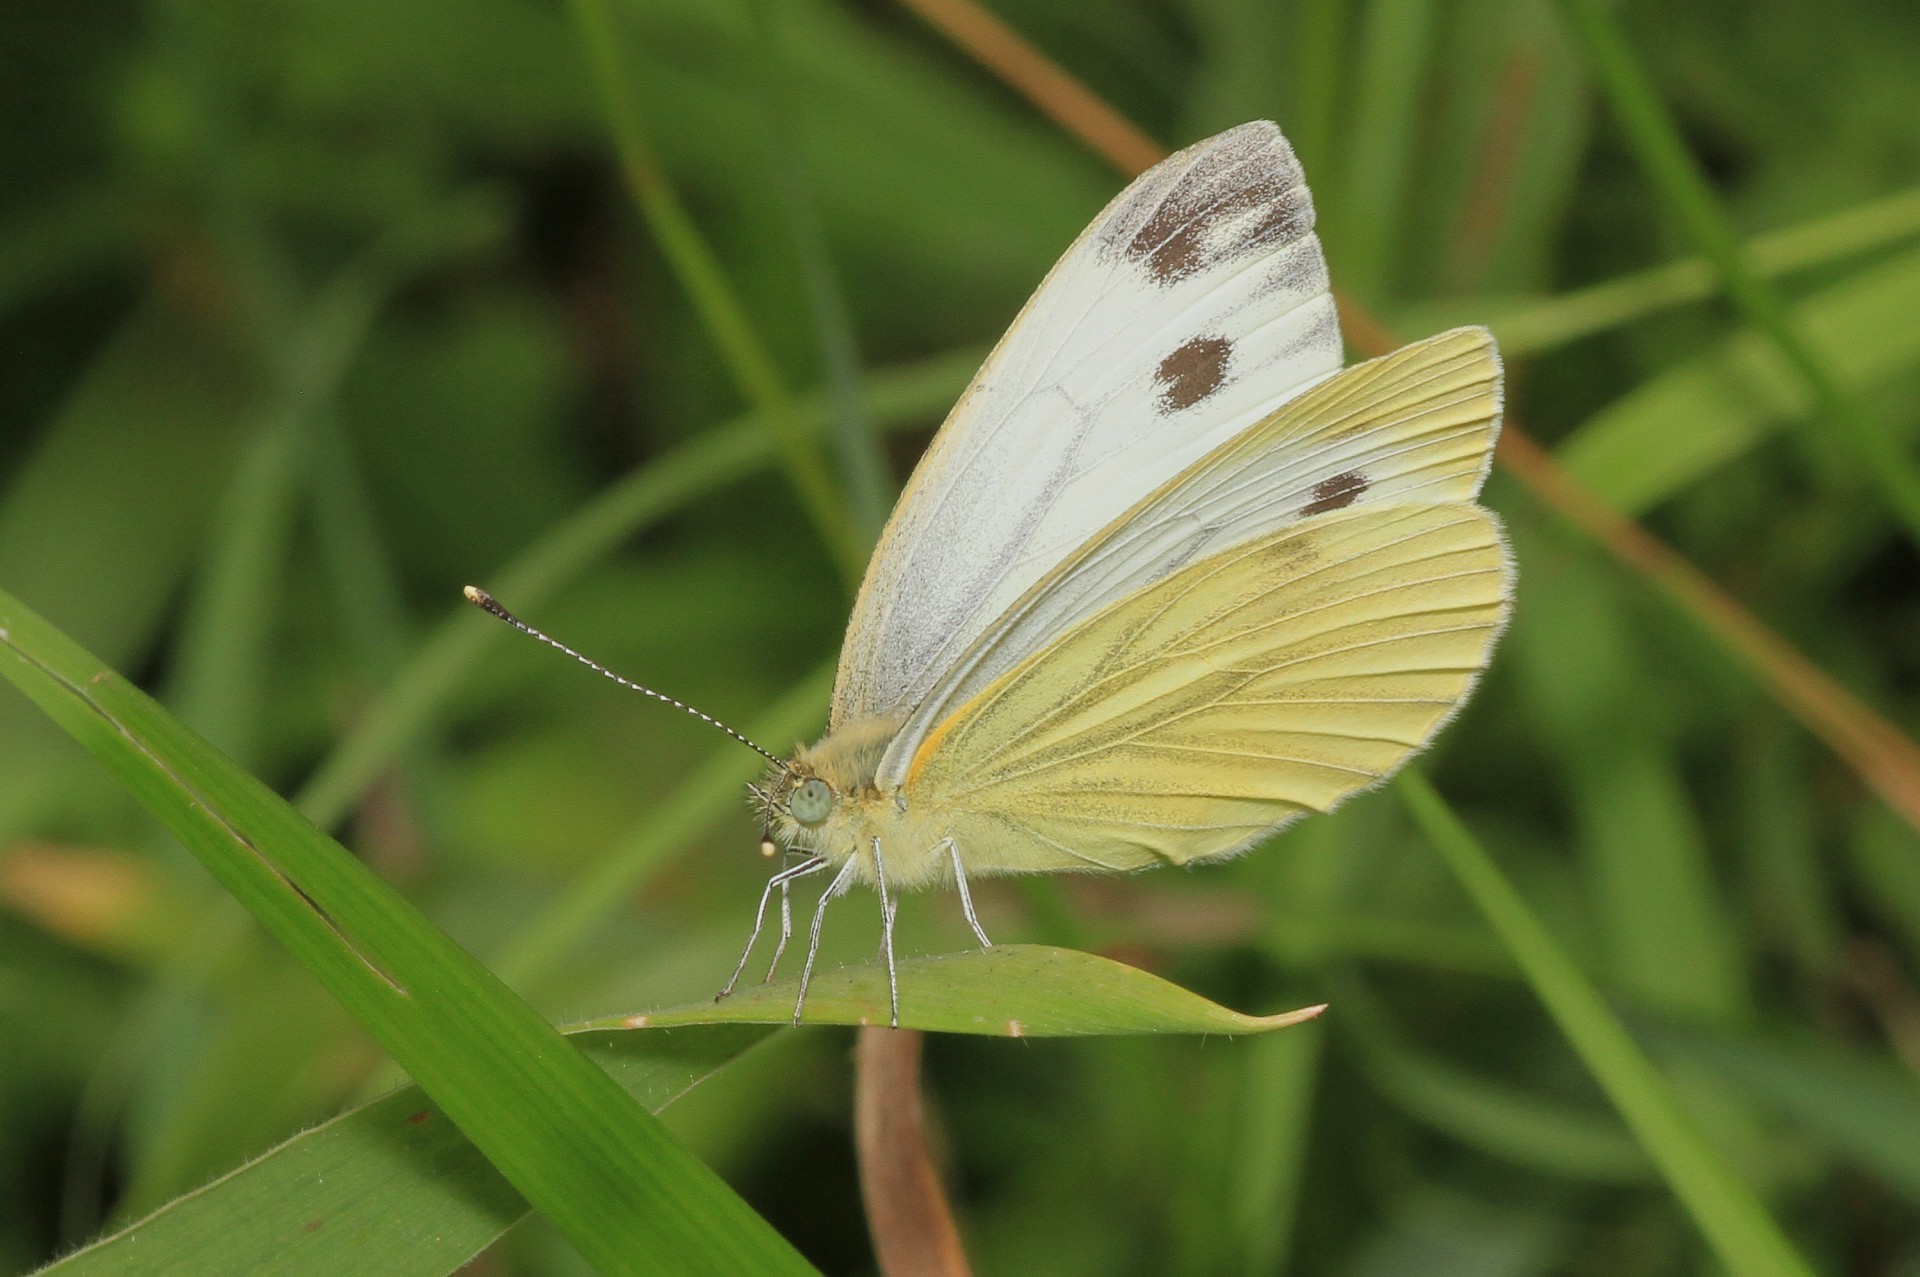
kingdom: Animalia
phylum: Arthropoda
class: Insecta
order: Lepidoptera
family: Pieridae
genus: Pieris
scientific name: Pieris napi
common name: Green-veined white
